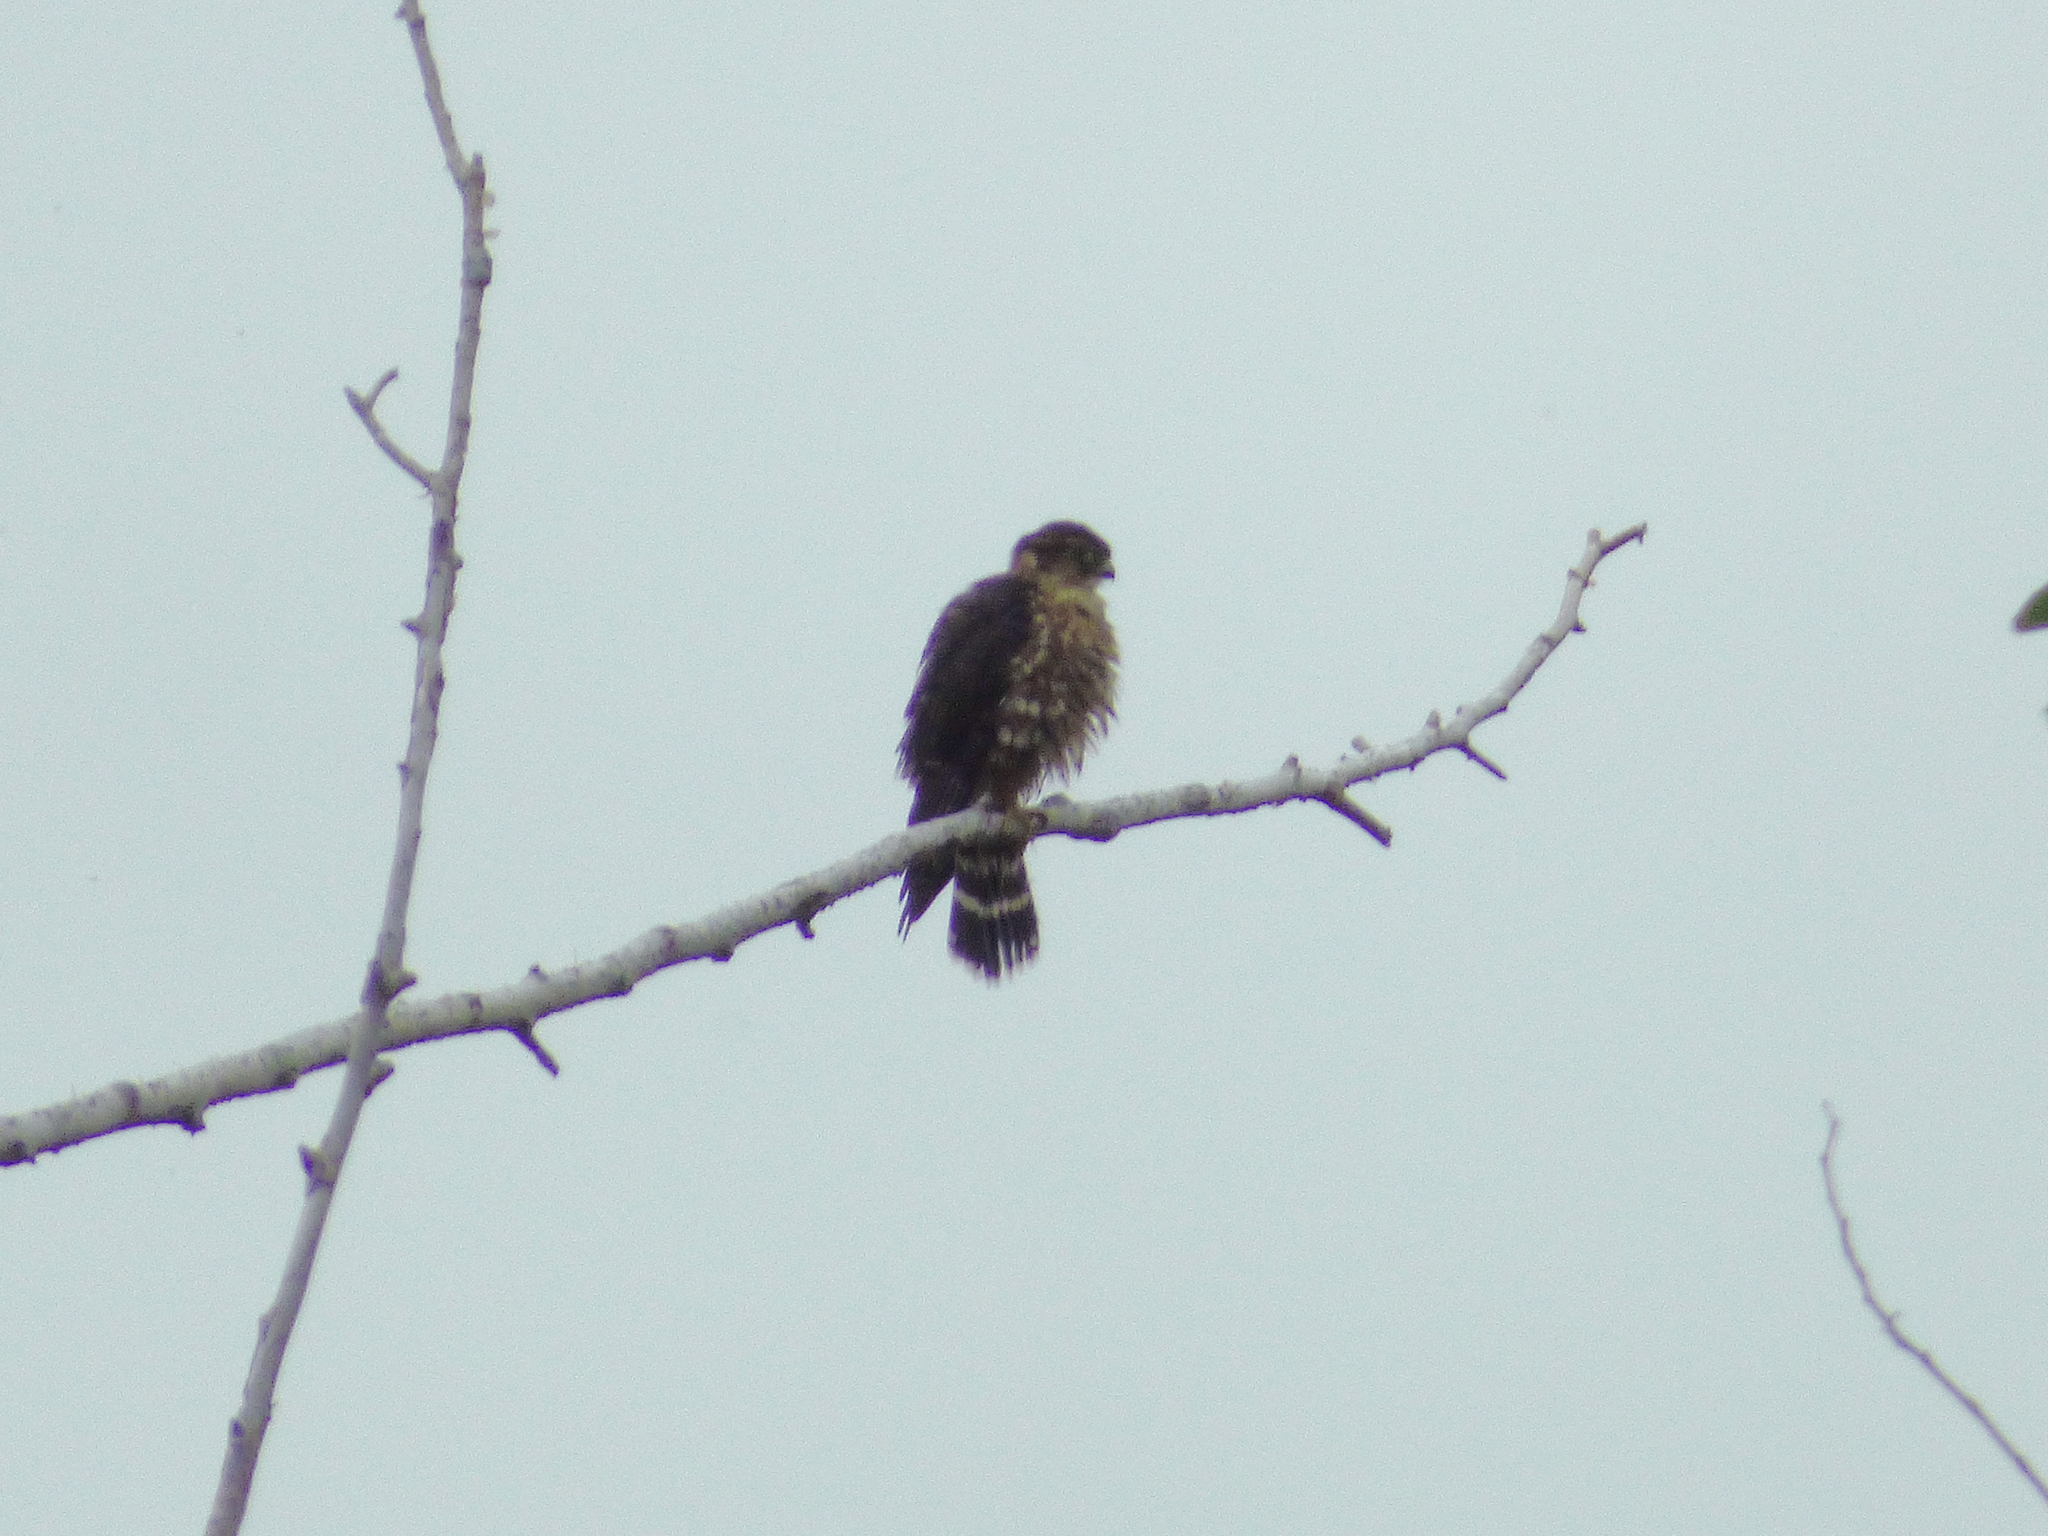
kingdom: Animalia
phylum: Chordata
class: Aves
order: Falconiformes
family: Falconidae
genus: Falco
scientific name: Falco columbarius
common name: Merlin
